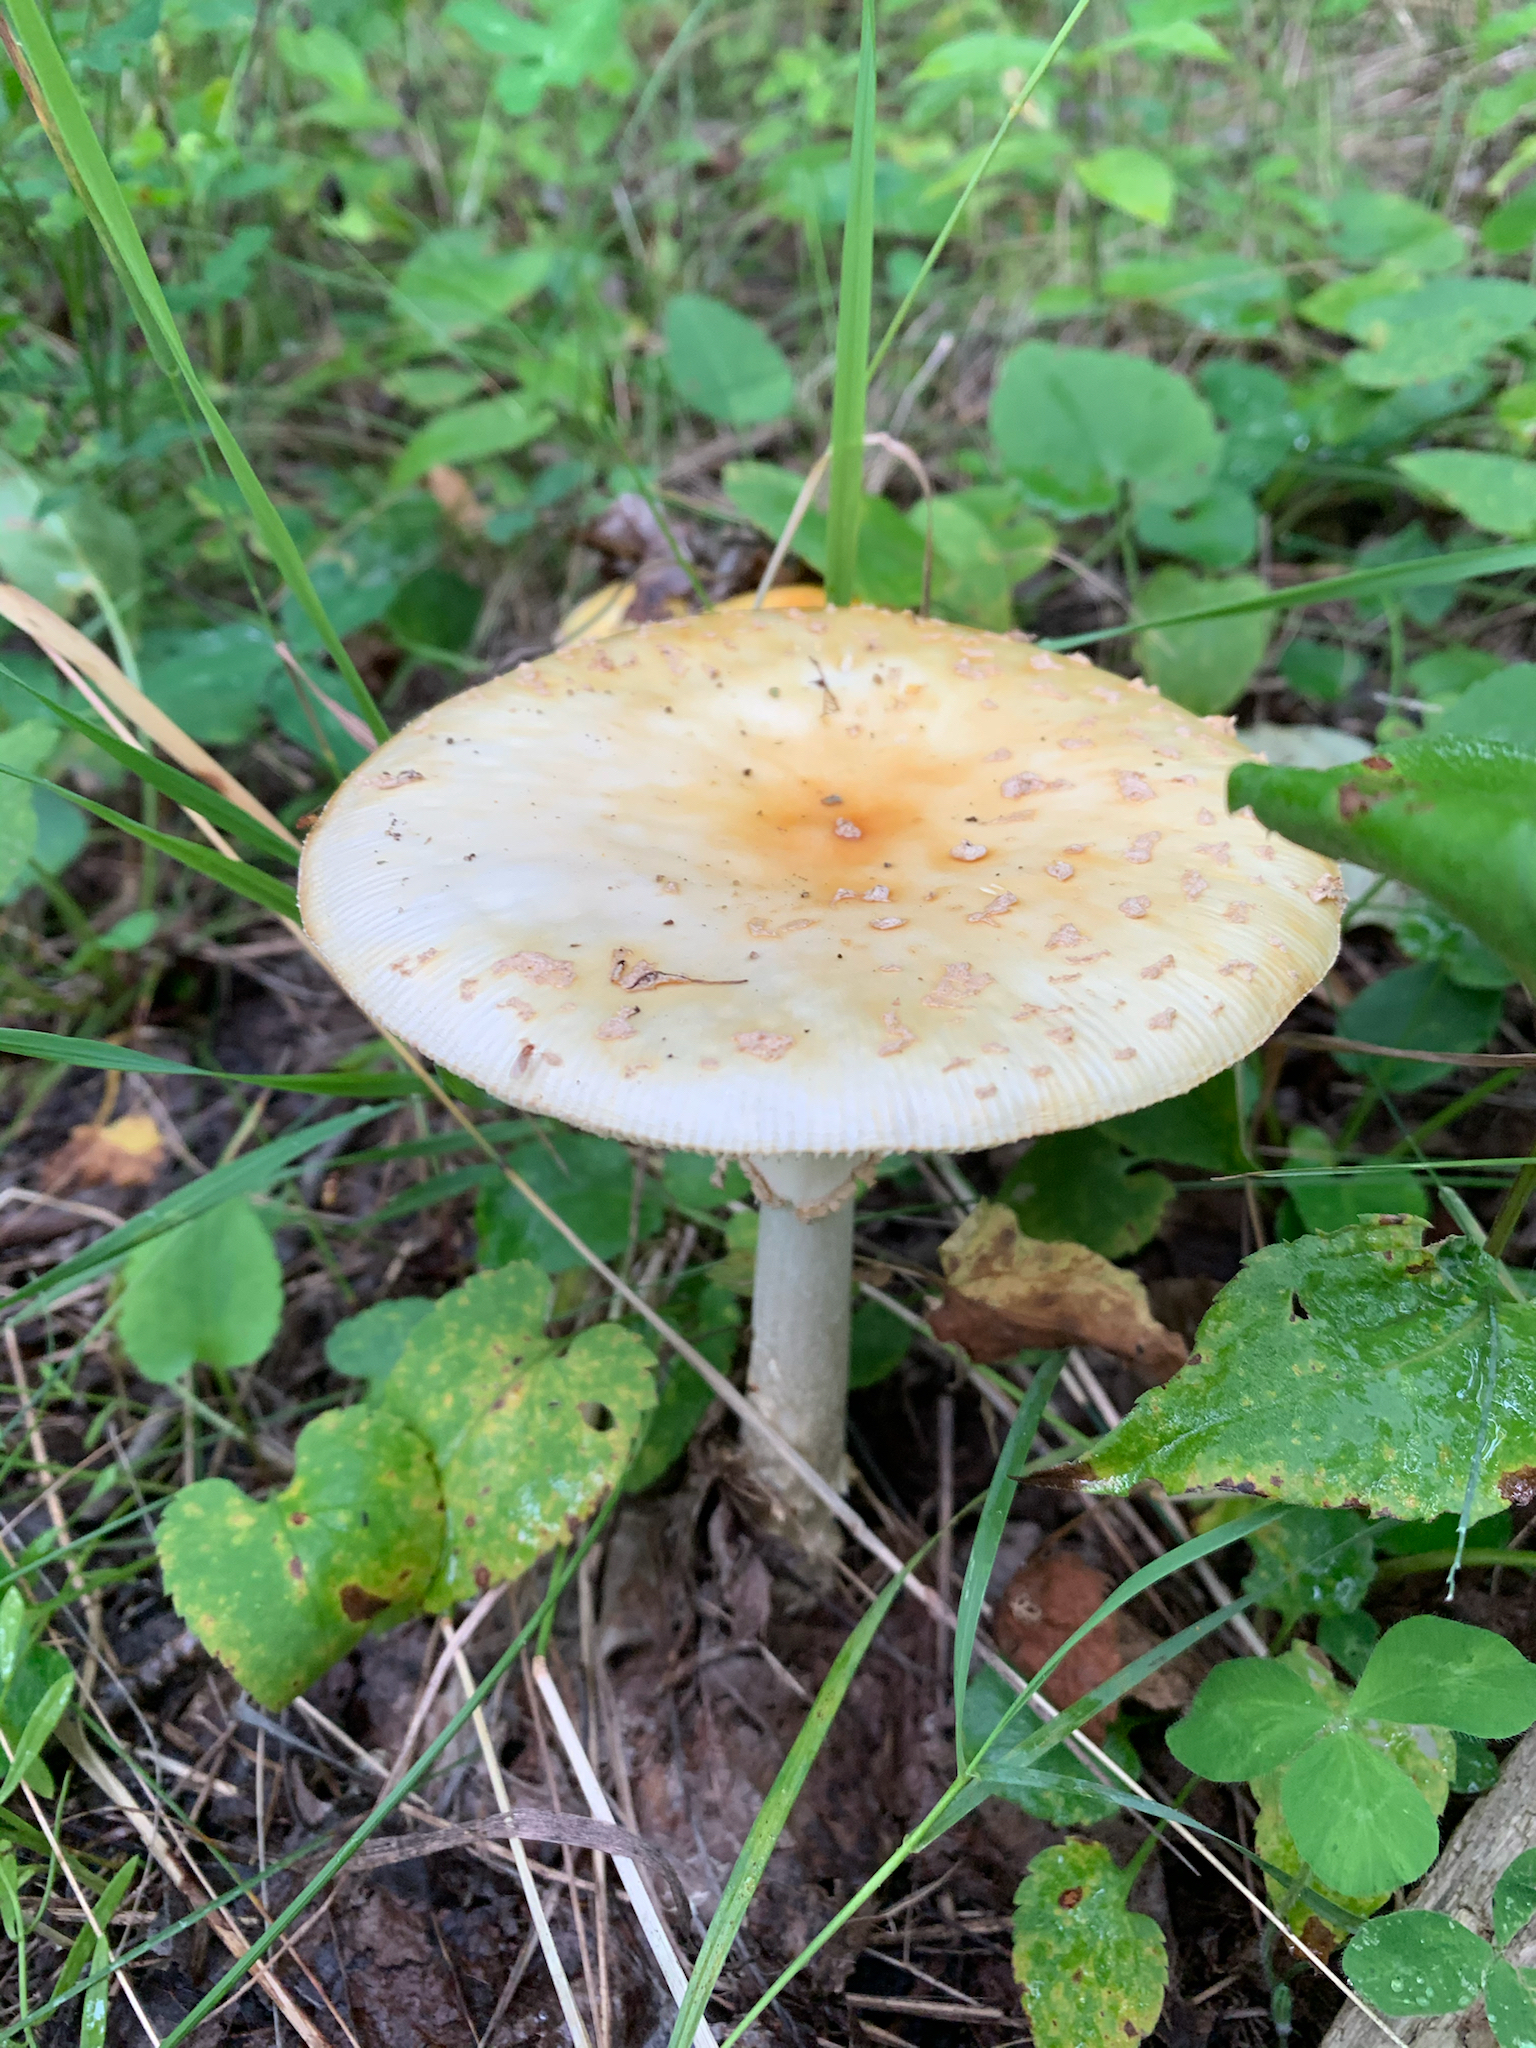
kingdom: Fungi
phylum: Basidiomycota
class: Agaricomycetes
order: Agaricales
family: Amanitaceae
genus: Amanita
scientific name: Amanita muscaria
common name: Fly agaric
